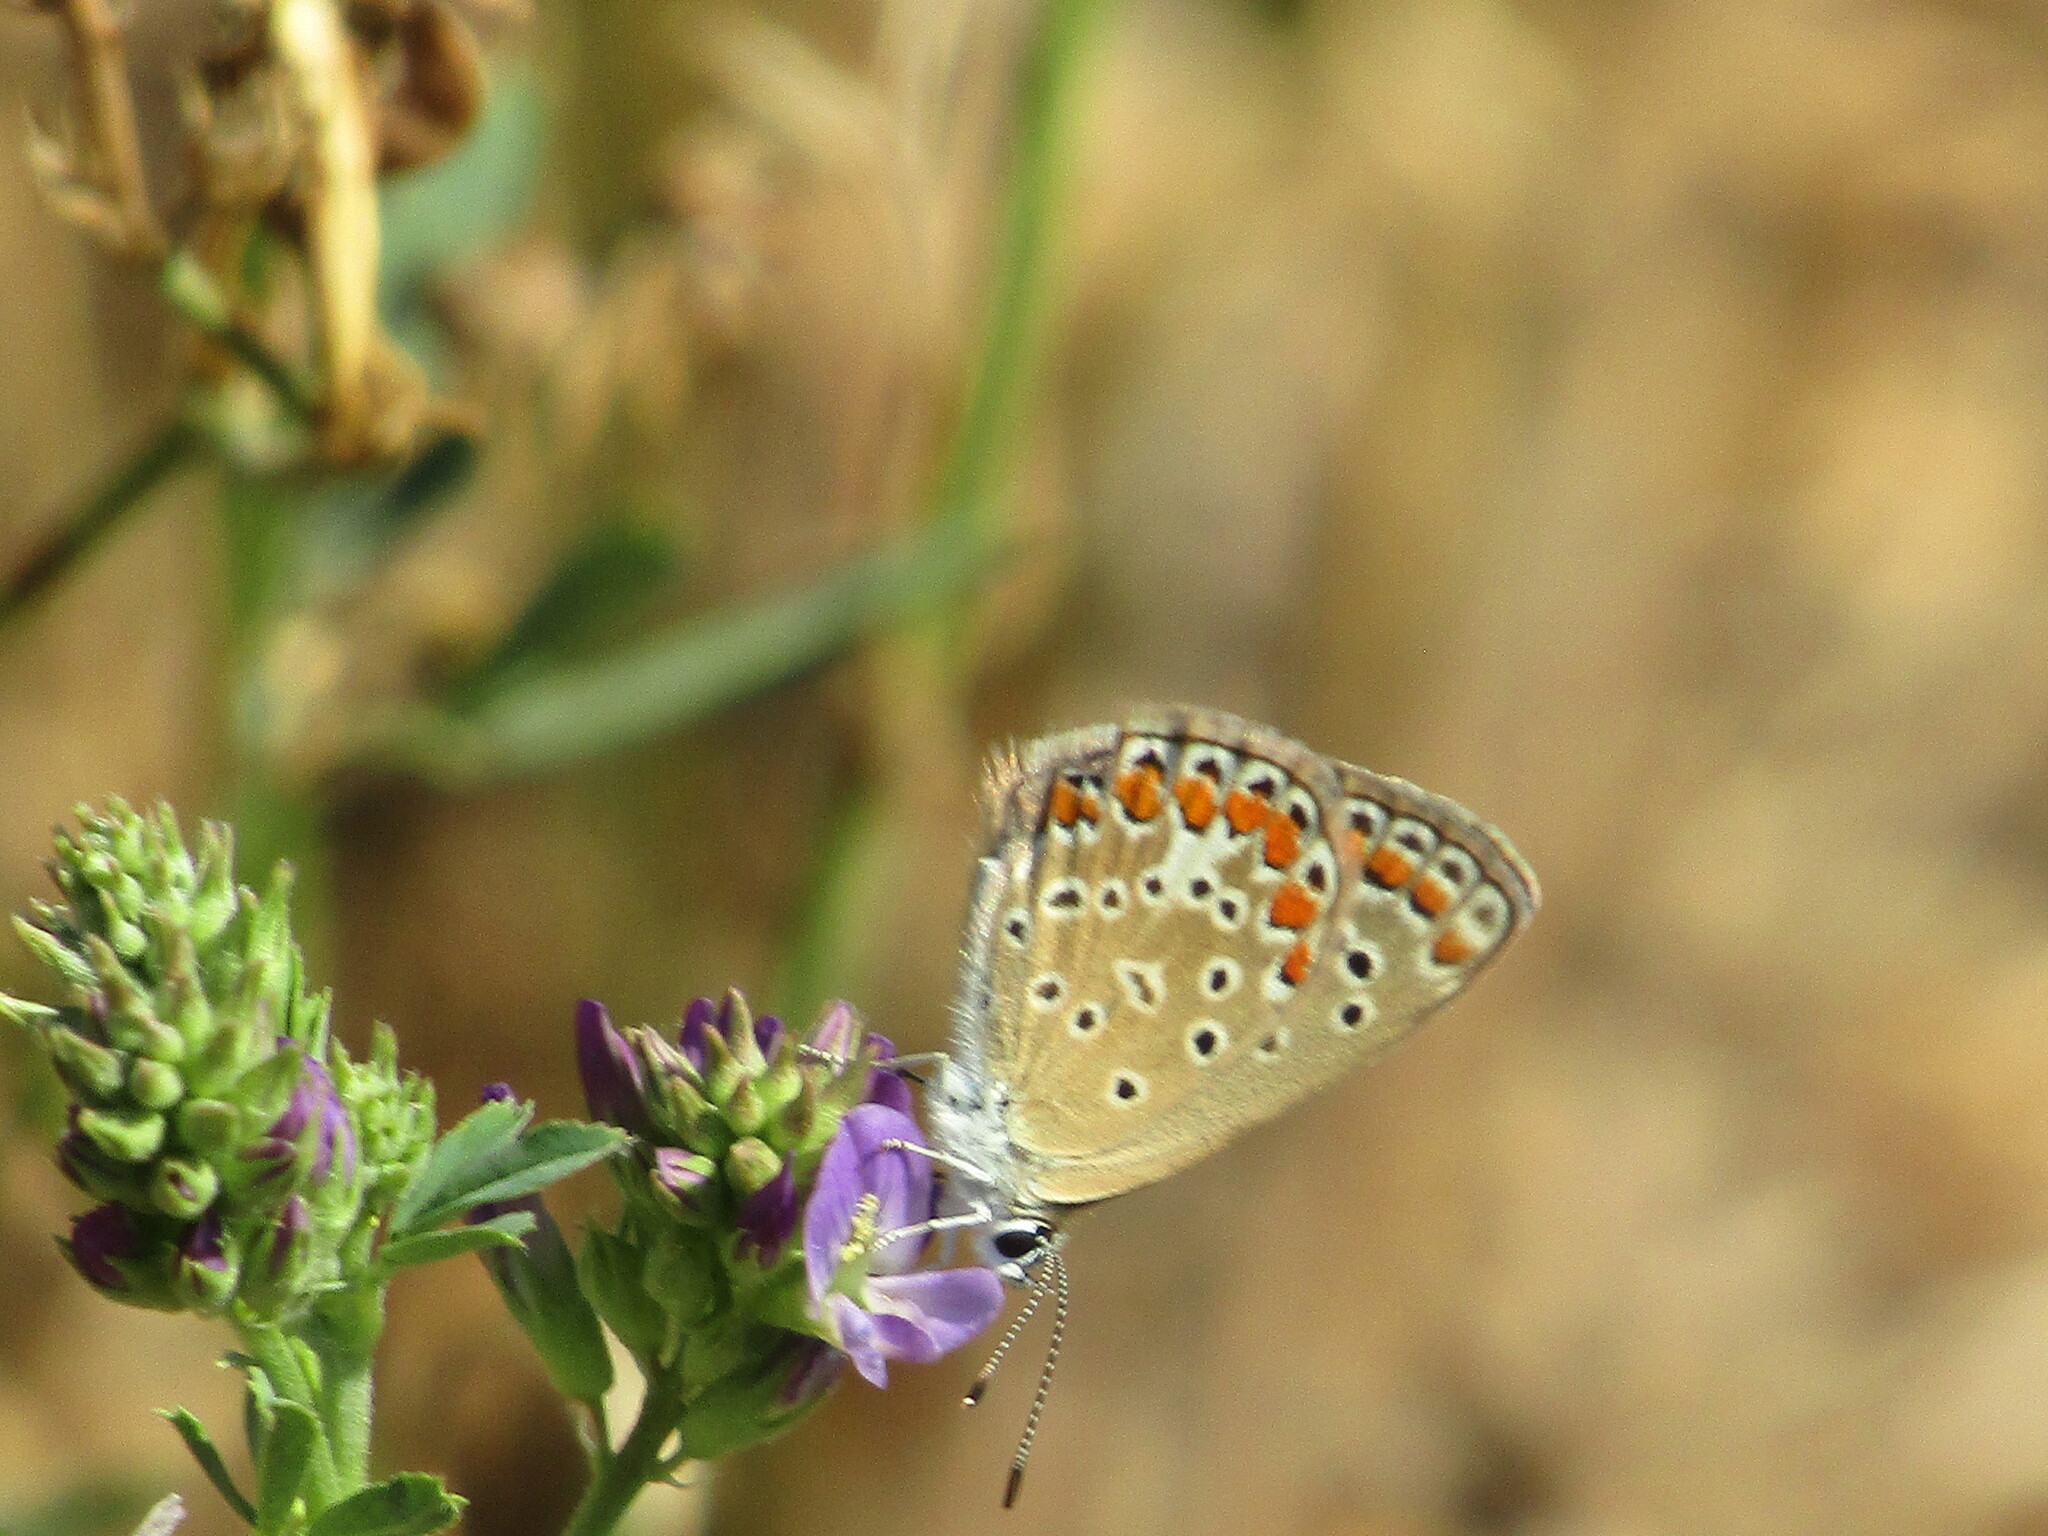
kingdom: Animalia
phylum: Arthropoda
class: Insecta
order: Lepidoptera
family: Lycaenidae
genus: Polyommatus
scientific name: Polyommatus icarus
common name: Common blue
